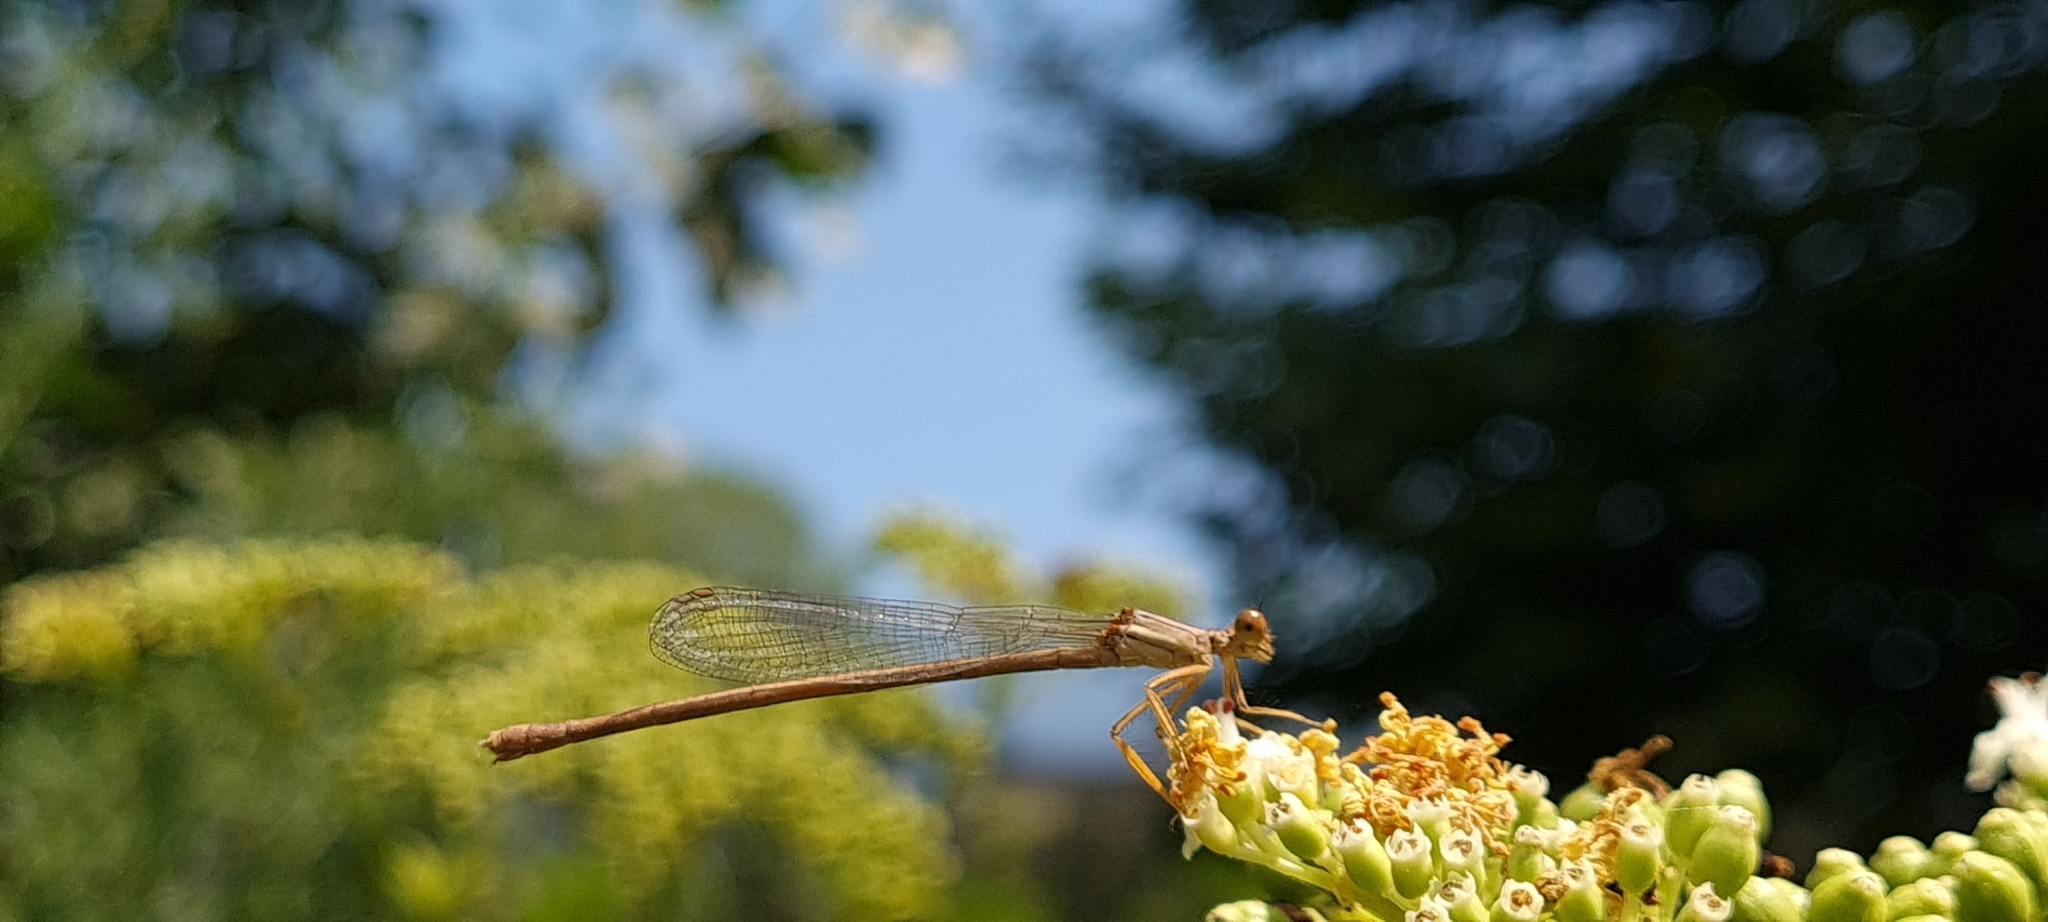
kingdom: Animalia
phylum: Arthropoda
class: Insecta
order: Odonata
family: Platycnemididae
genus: Platycnemis
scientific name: Platycnemis latipes
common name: White featherleg
